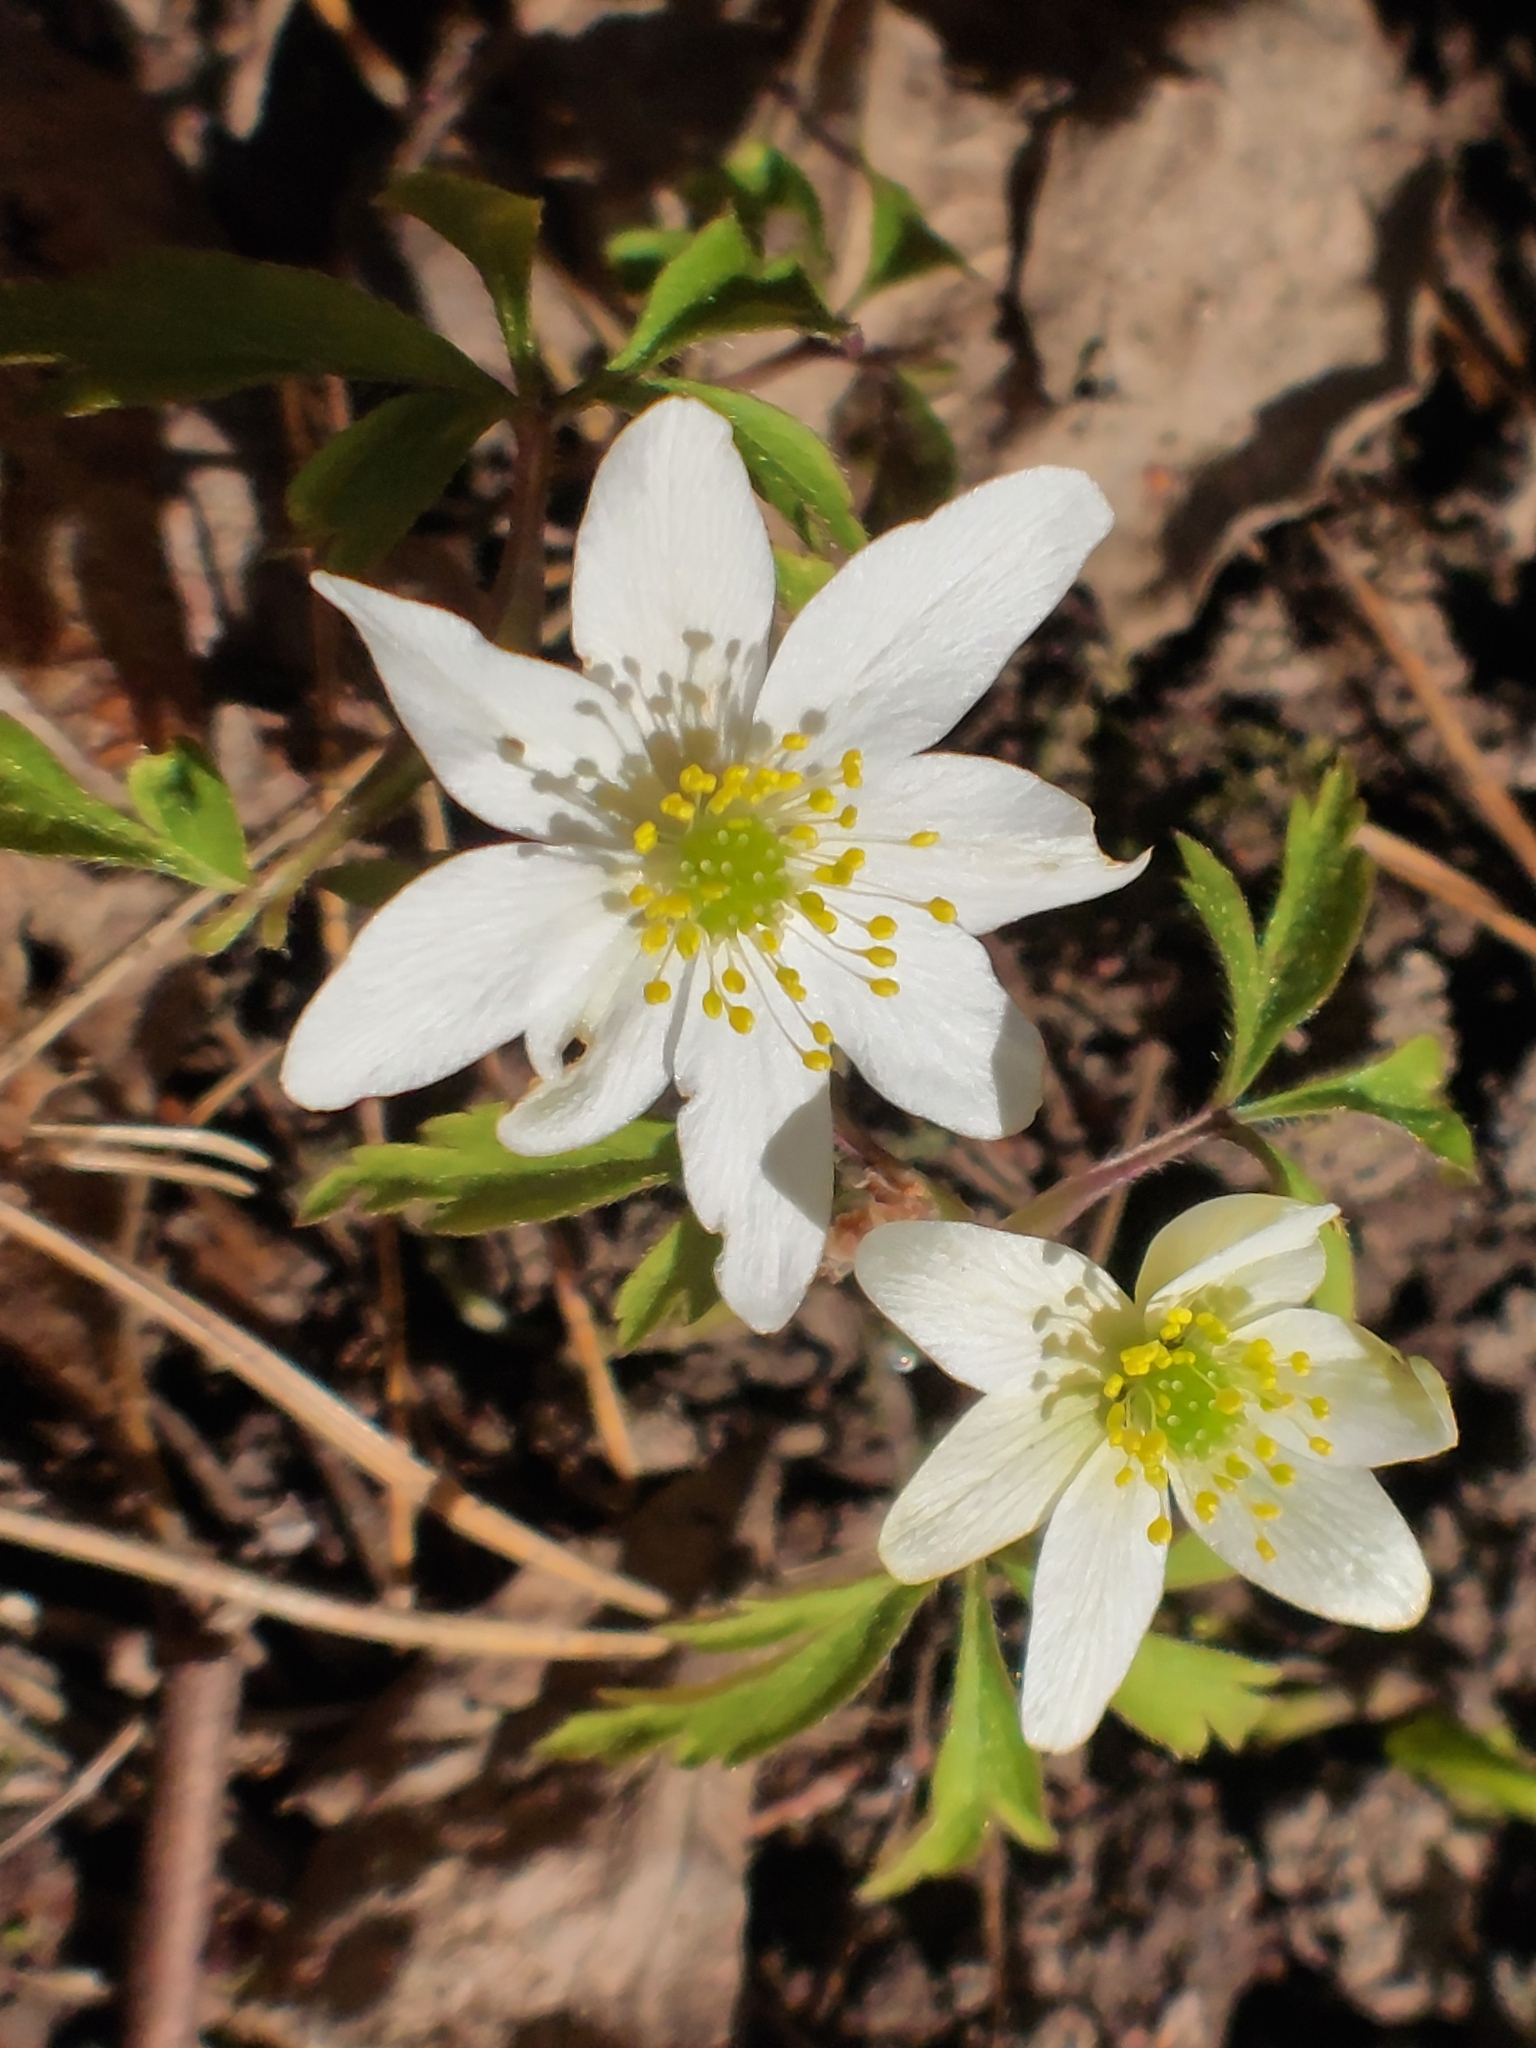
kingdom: Plantae
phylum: Tracheophyta
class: Magnoliopsida
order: Ranunculales
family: Ranunculaceae
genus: Anemone
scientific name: Anemone nemorosa
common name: Wood anemone
